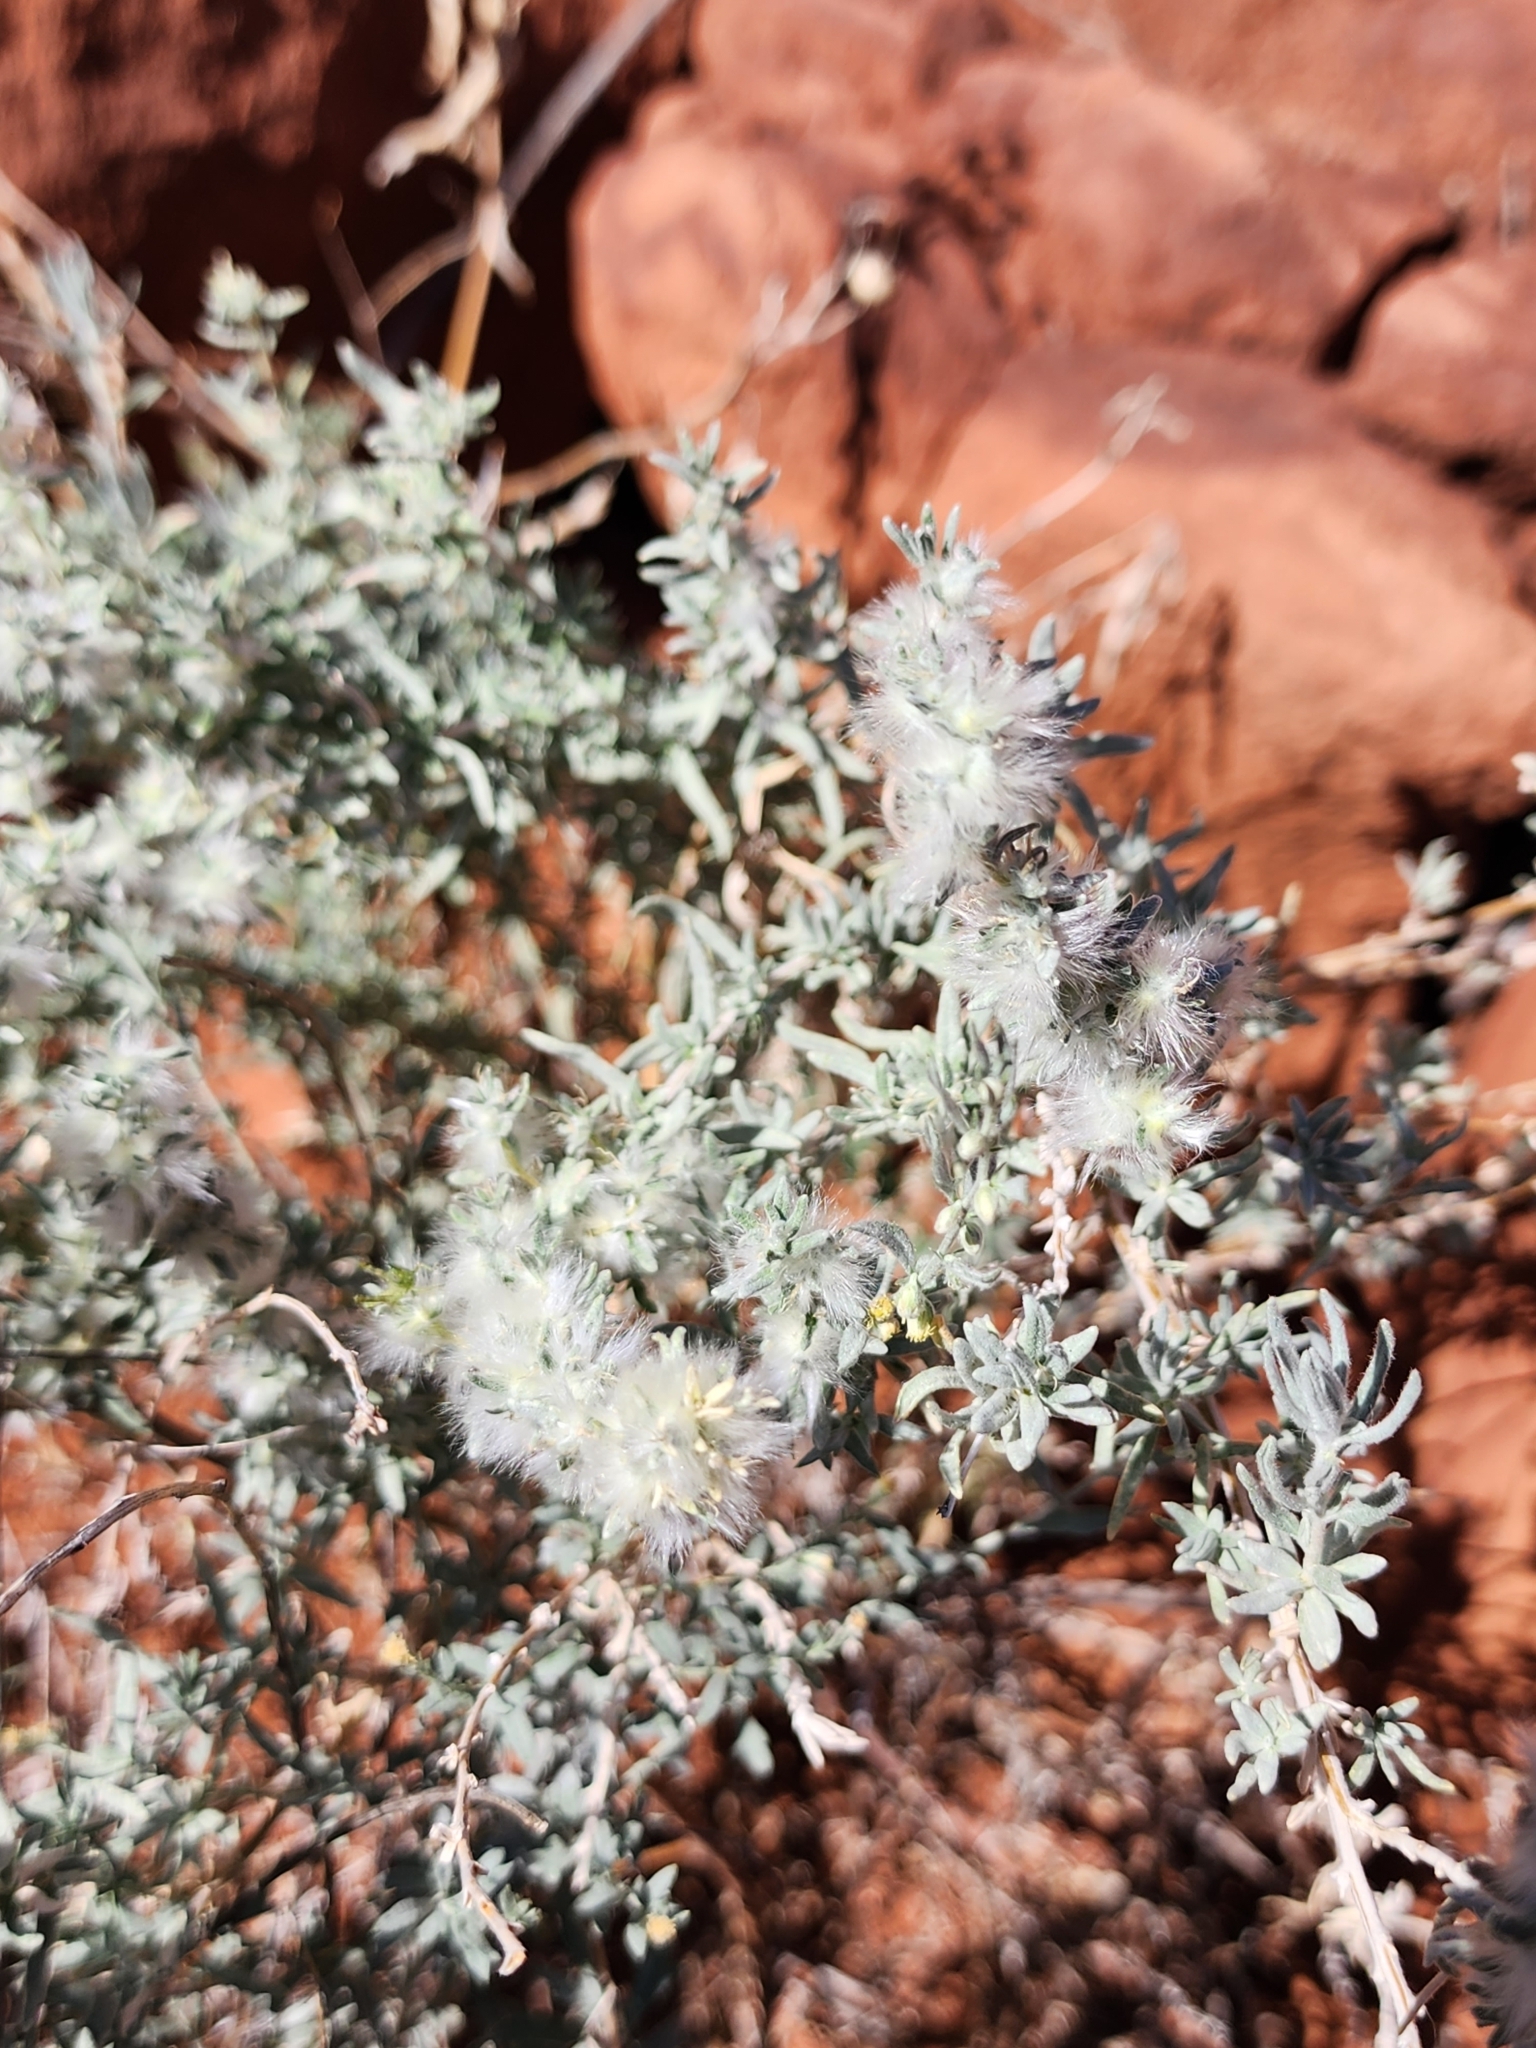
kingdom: Plantae
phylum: Tracheophyta
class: Magnoliopsida
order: Caryophyllales
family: Amaranthaceae
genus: Krascheninnikovia
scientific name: Krascheninnikovia lanata
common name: Winterfat
